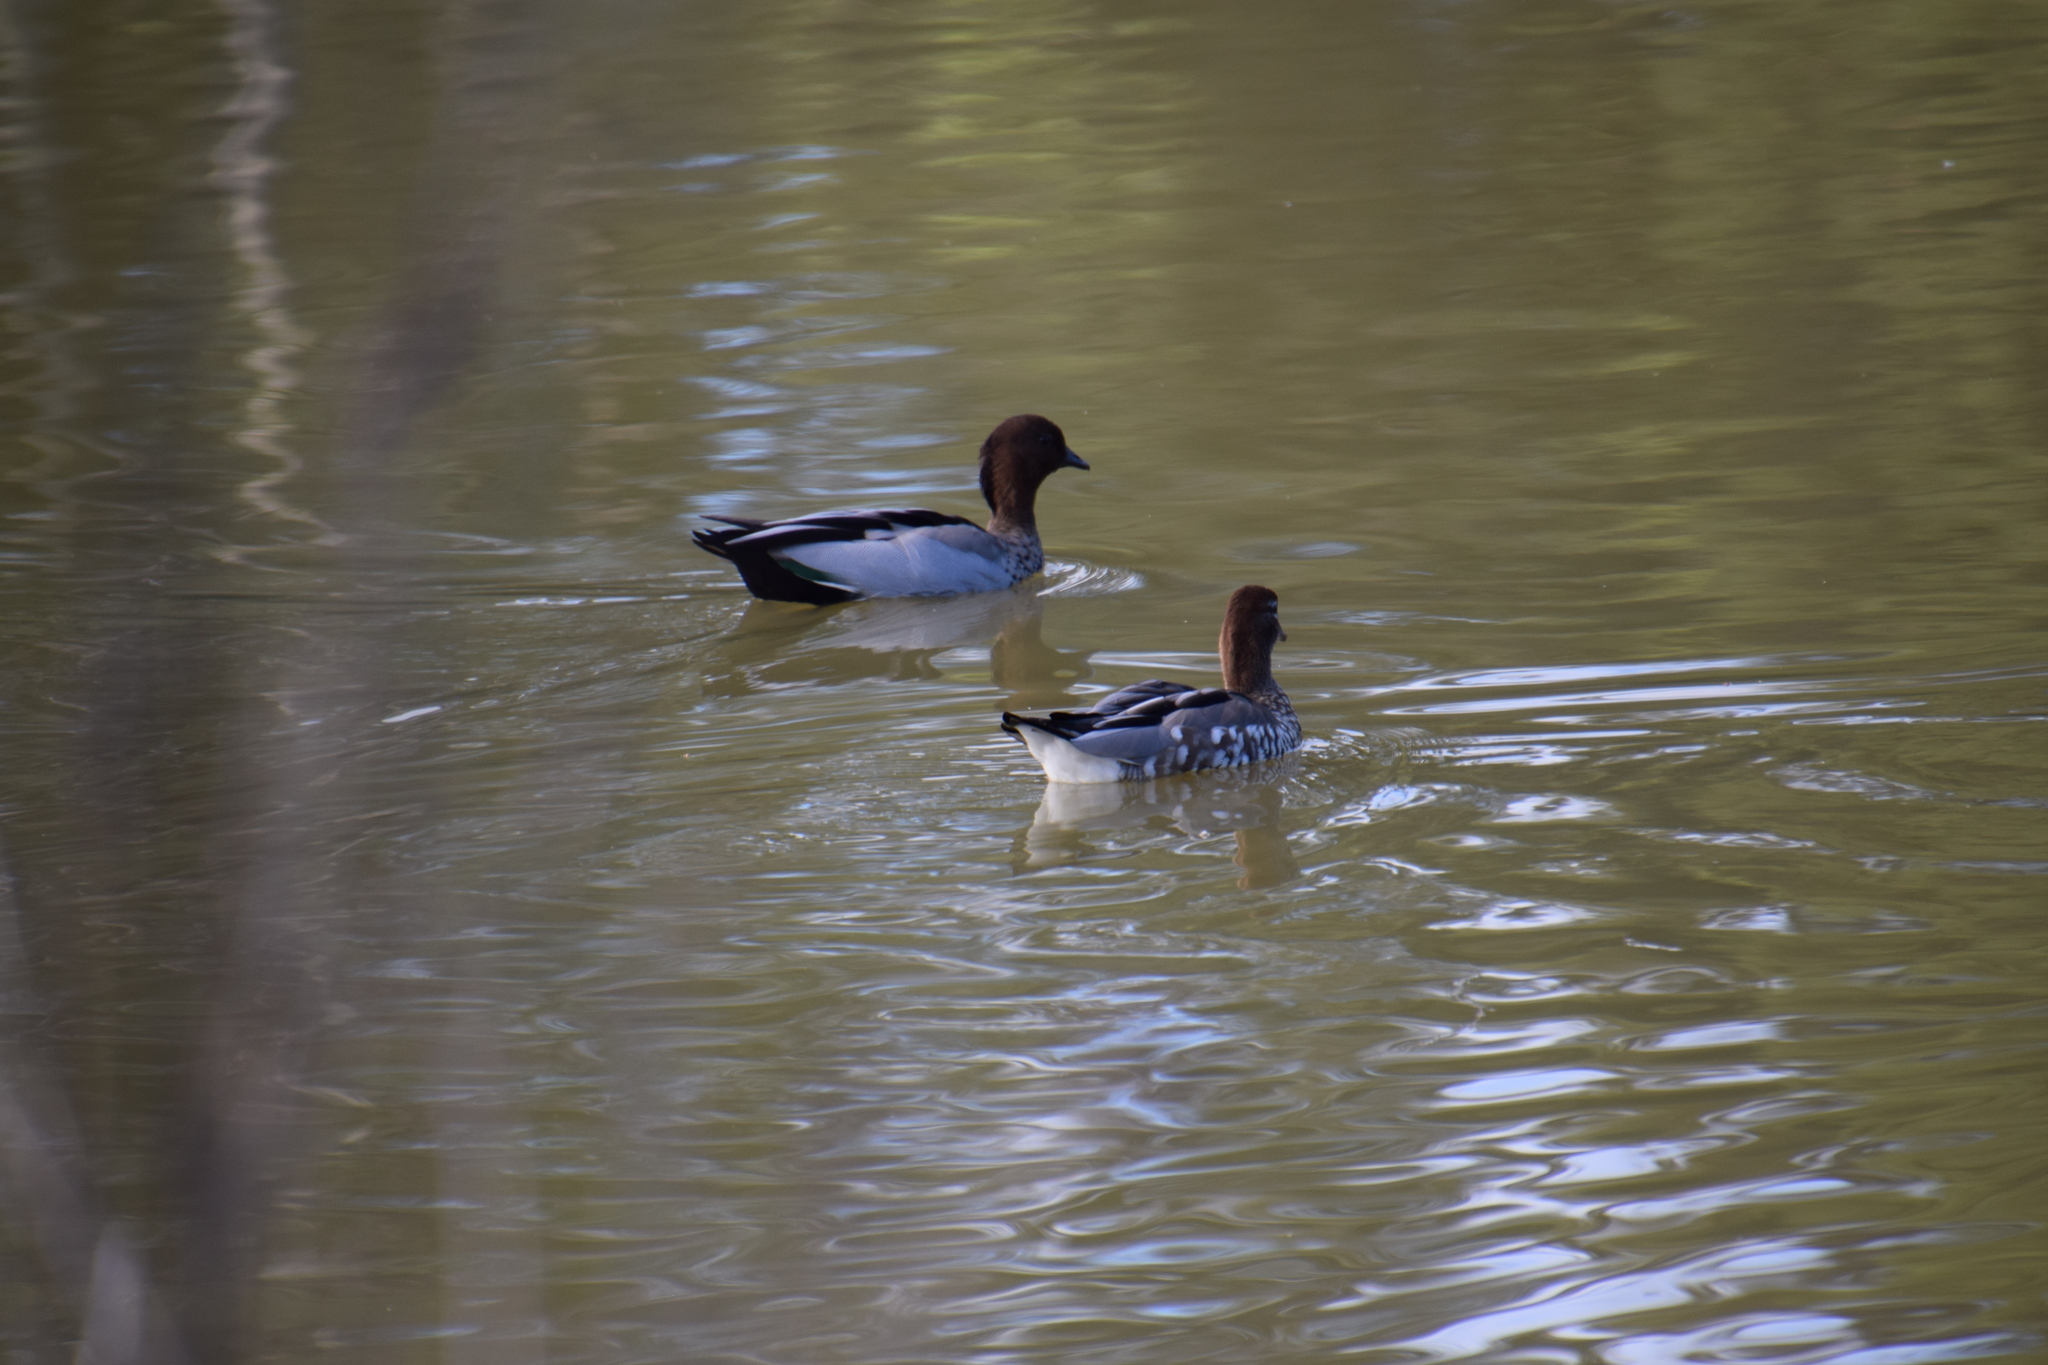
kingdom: Animalia
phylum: Chordata
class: Aves
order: Anseriformes
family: Anatidae
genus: Chenonetta
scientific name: Chenonetta jubata
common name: Maned duck
